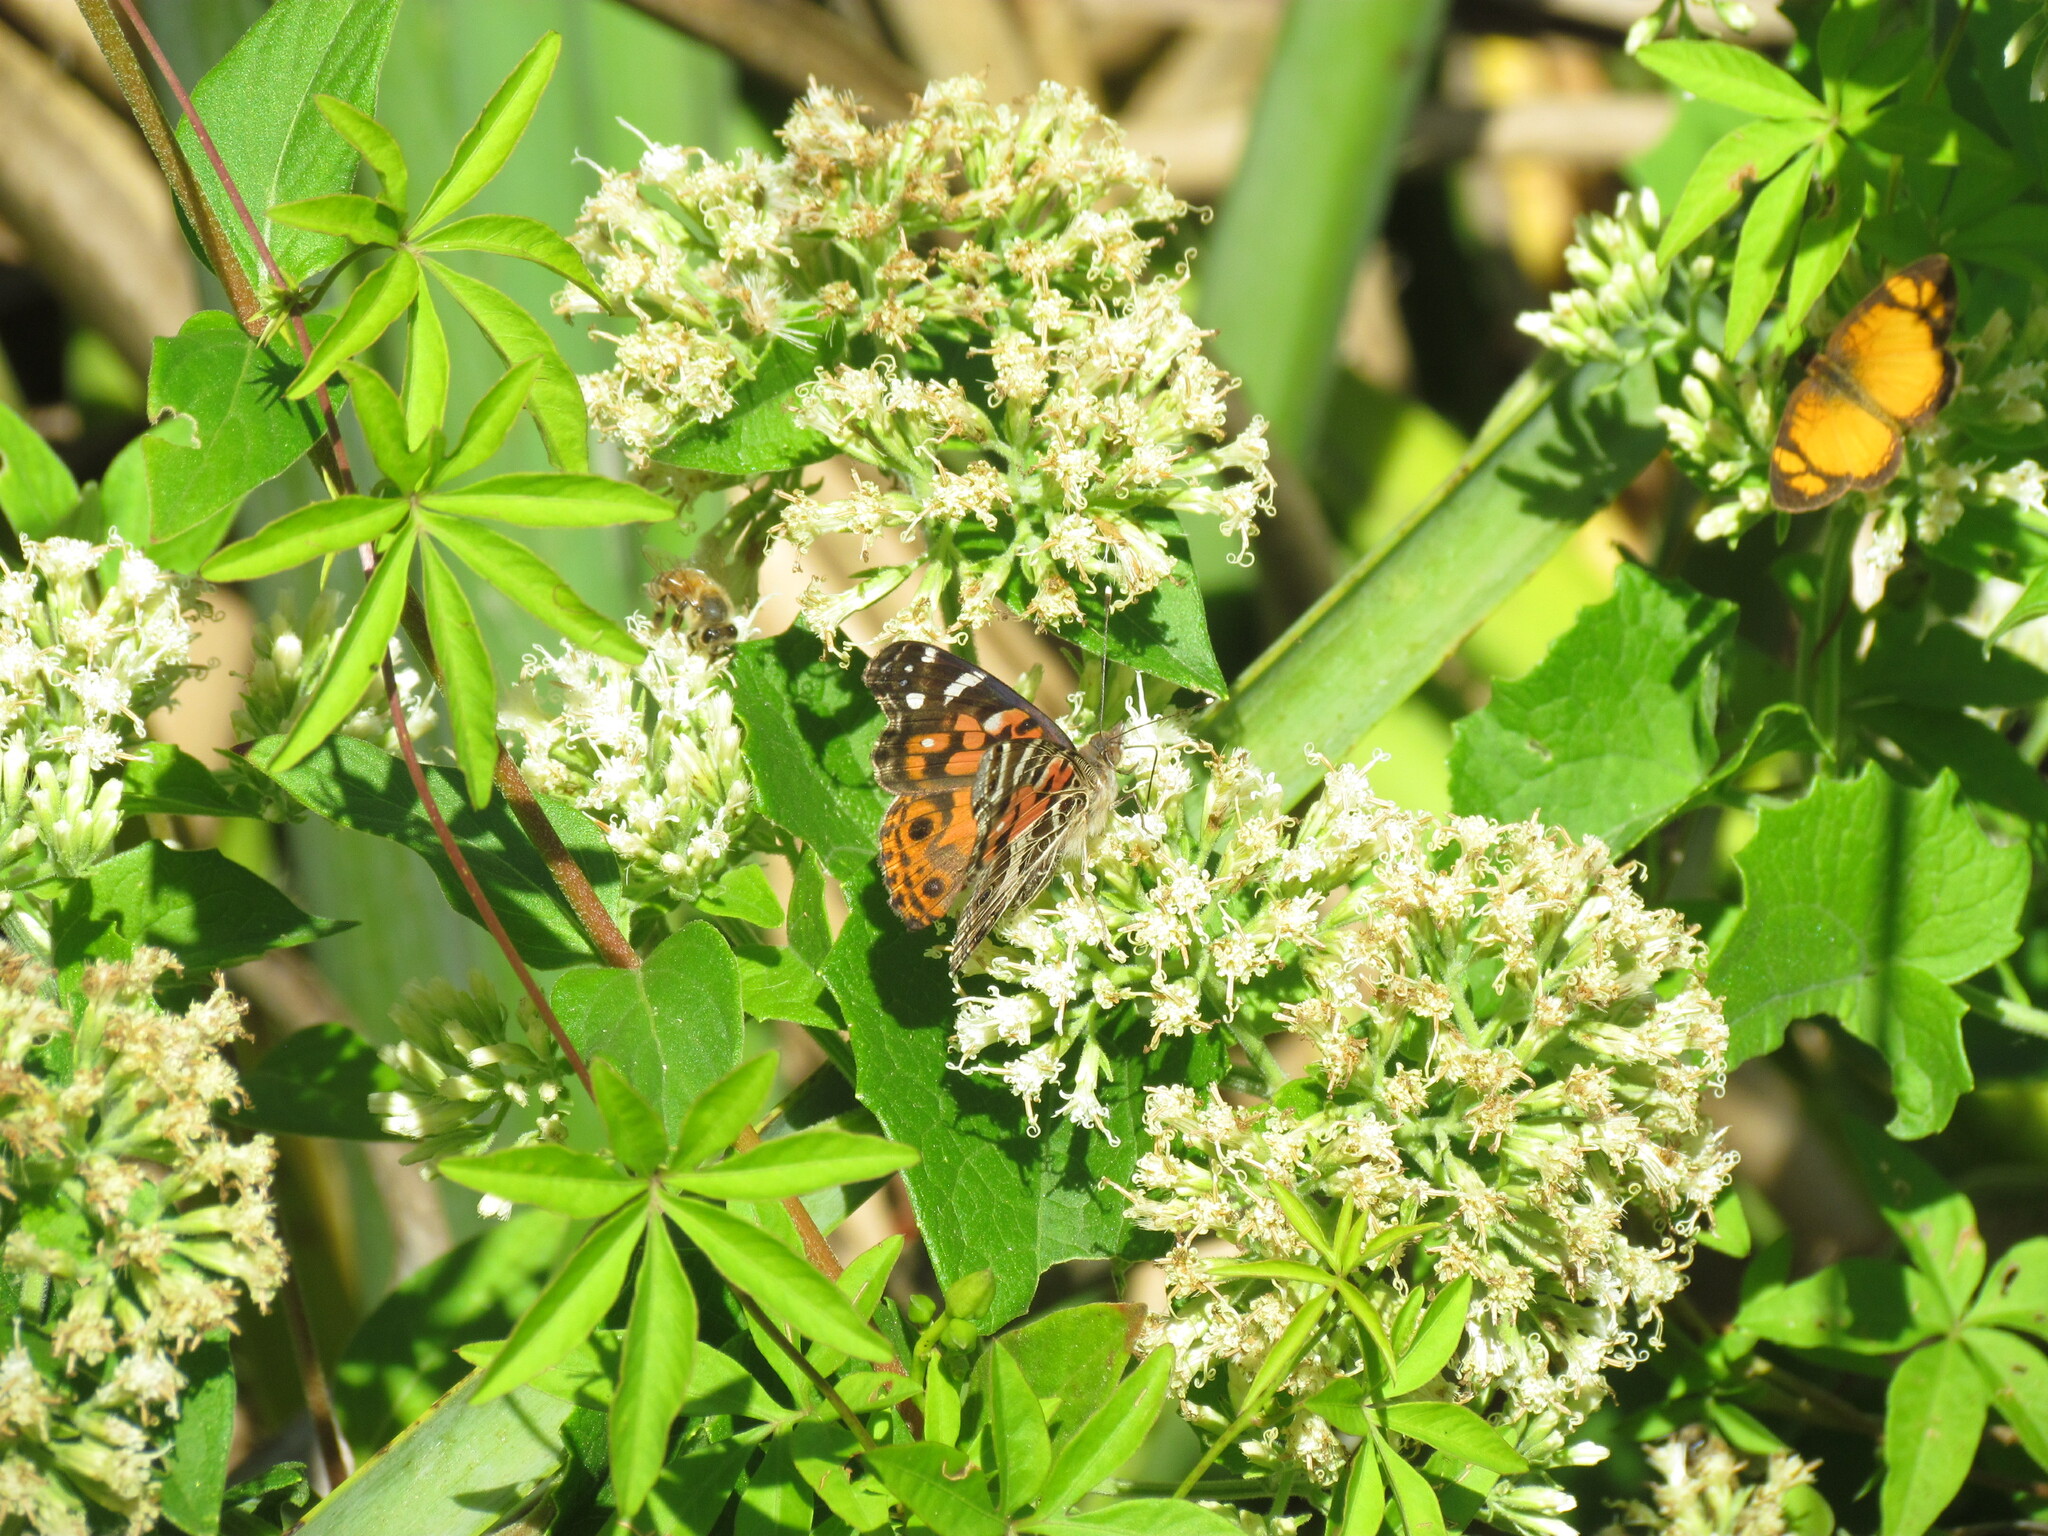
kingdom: Animalia
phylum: Arthropoda
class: Insecta
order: Lepidoptera
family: Nymphalidae
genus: Vanessa
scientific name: Vanessa braziliensis
